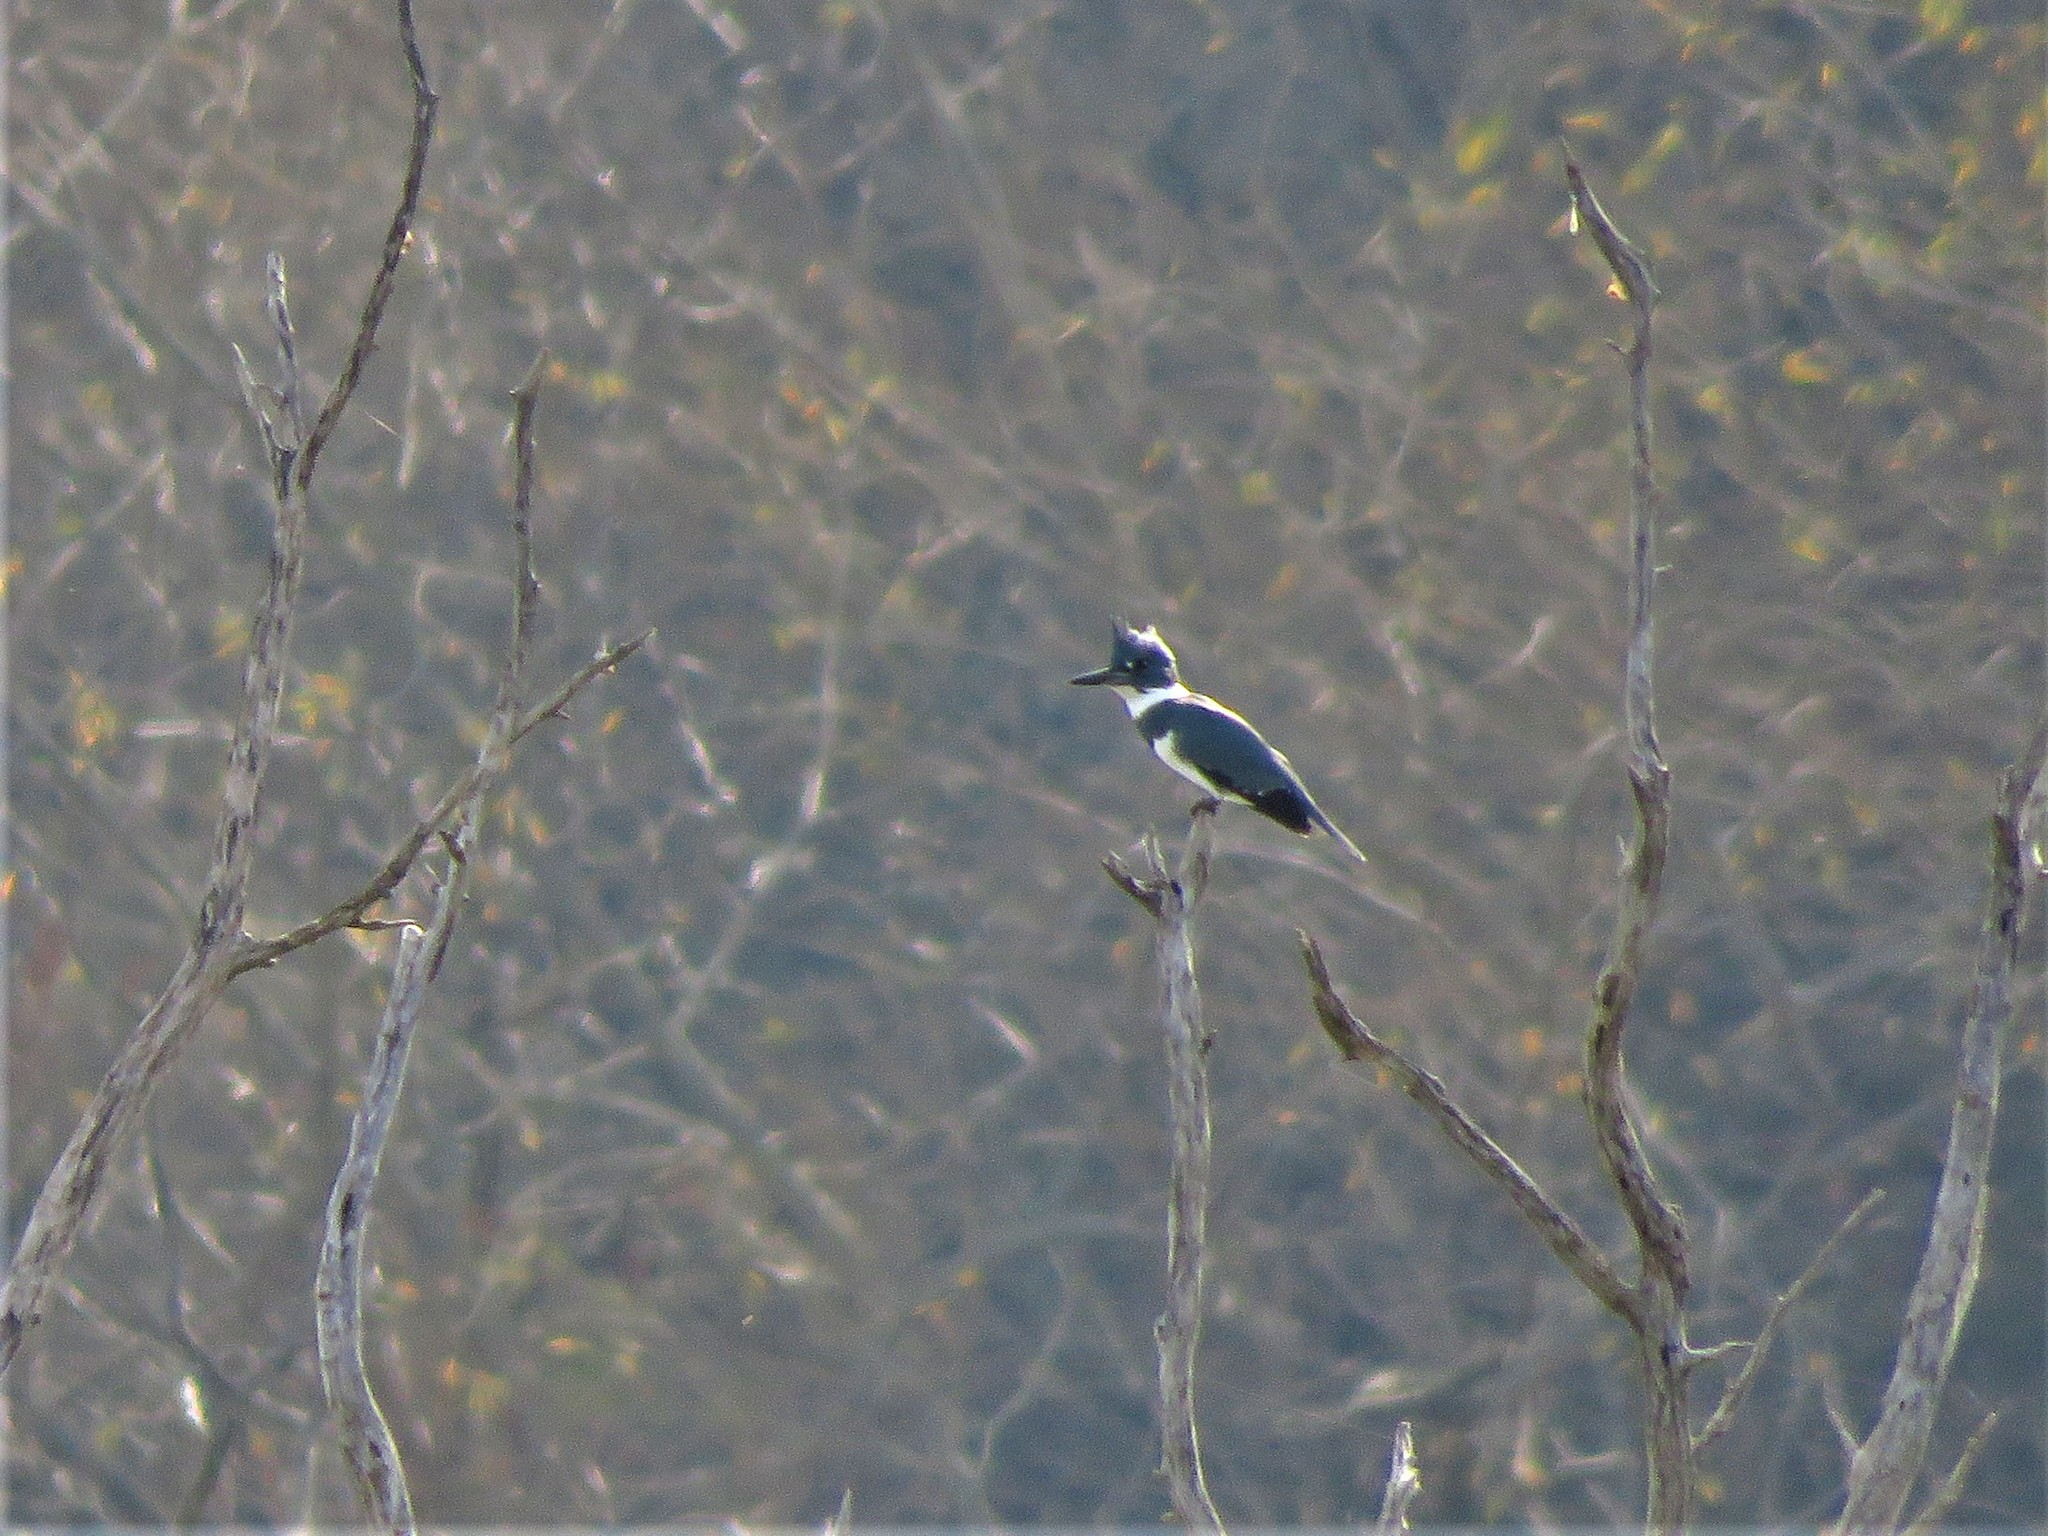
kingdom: Animalia
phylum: Chordata
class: Aves
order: Coraciiformes
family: Alcedinidae
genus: Megaceryle
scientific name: Megaceryle alcyon
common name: Belted kingfisher
